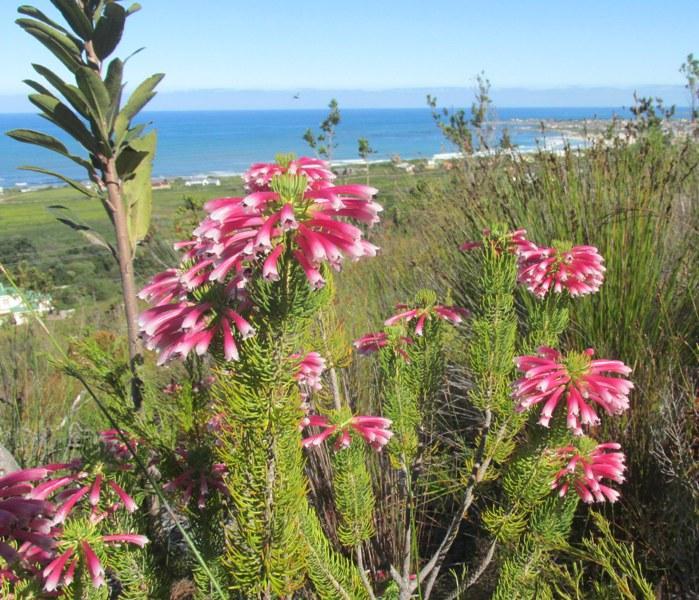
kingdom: Plantae
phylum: Tracheophyta
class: Magnoliopsida
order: Ericales
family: Ericaceae
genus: Erica
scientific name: Erica thomae
